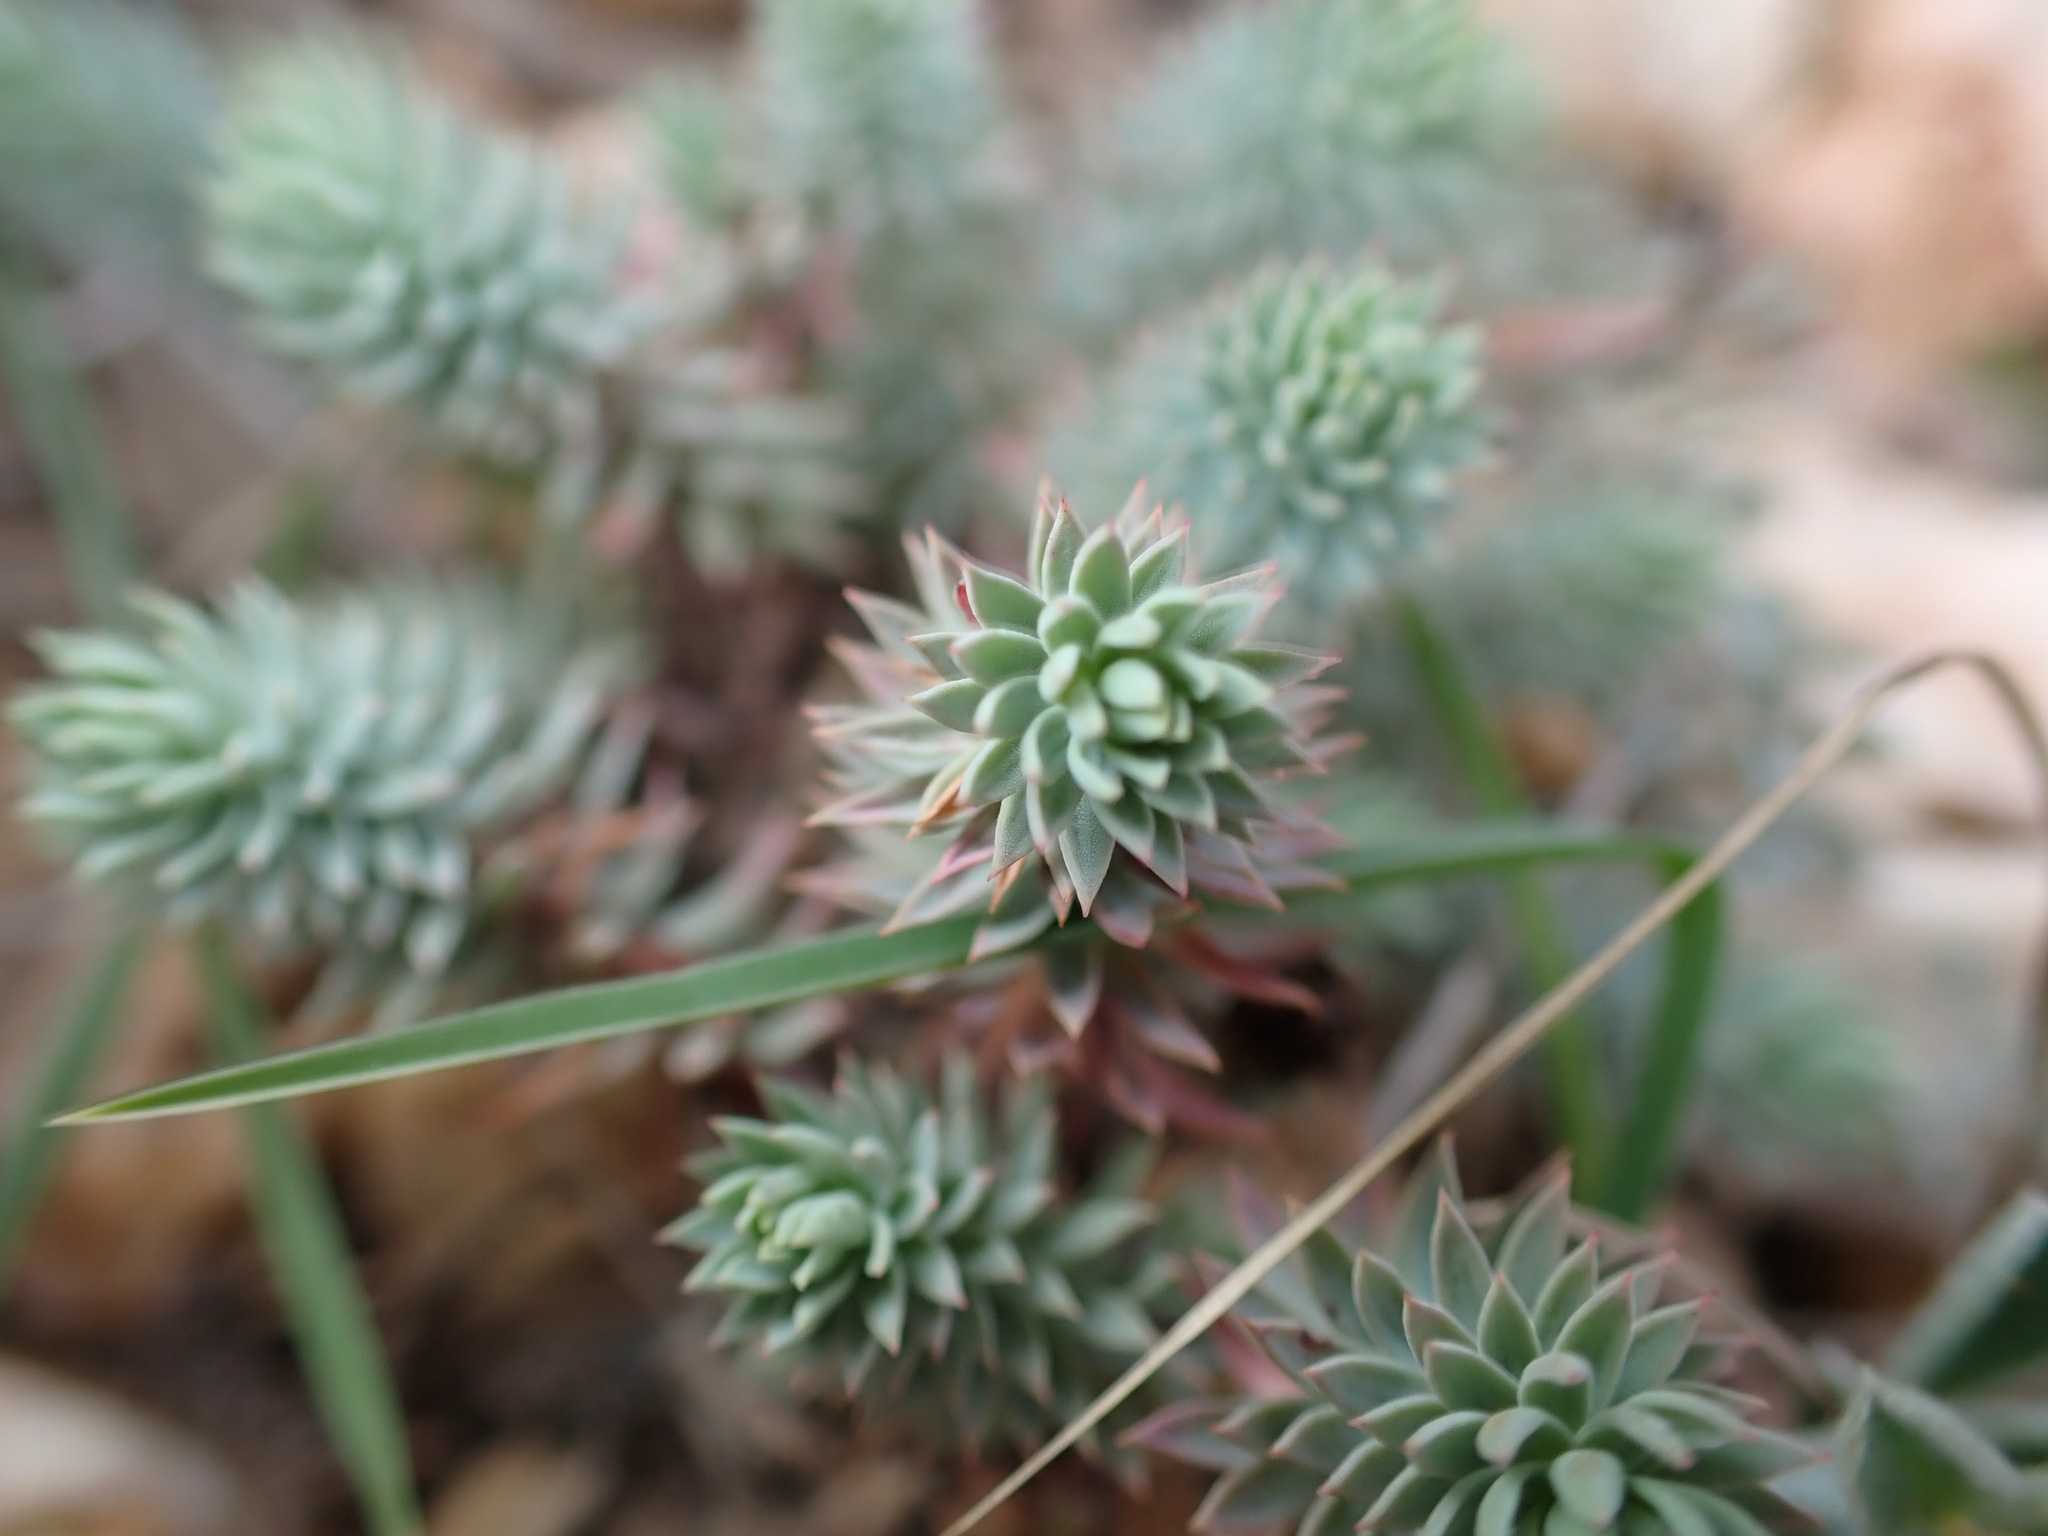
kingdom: Plantae
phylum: Tracheophyta
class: Magnoliopsida
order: Malpighiales
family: Euphorbiaceae
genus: Euphorbia
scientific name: Euphorbia pithyusa
